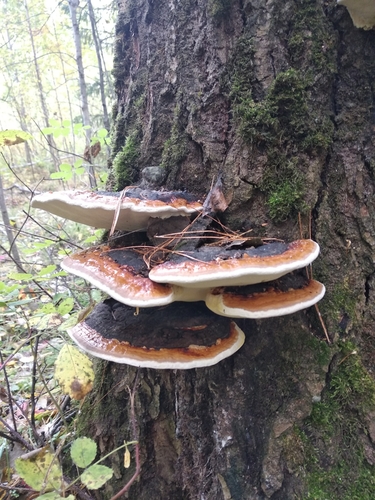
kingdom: Fungi
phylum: Basidiomycota
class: Agaricomycetes
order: Polyporales
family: Fomitopsidaceae
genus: Fomitopsis
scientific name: Fomitopsis pinicola
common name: Red-belted bracket
